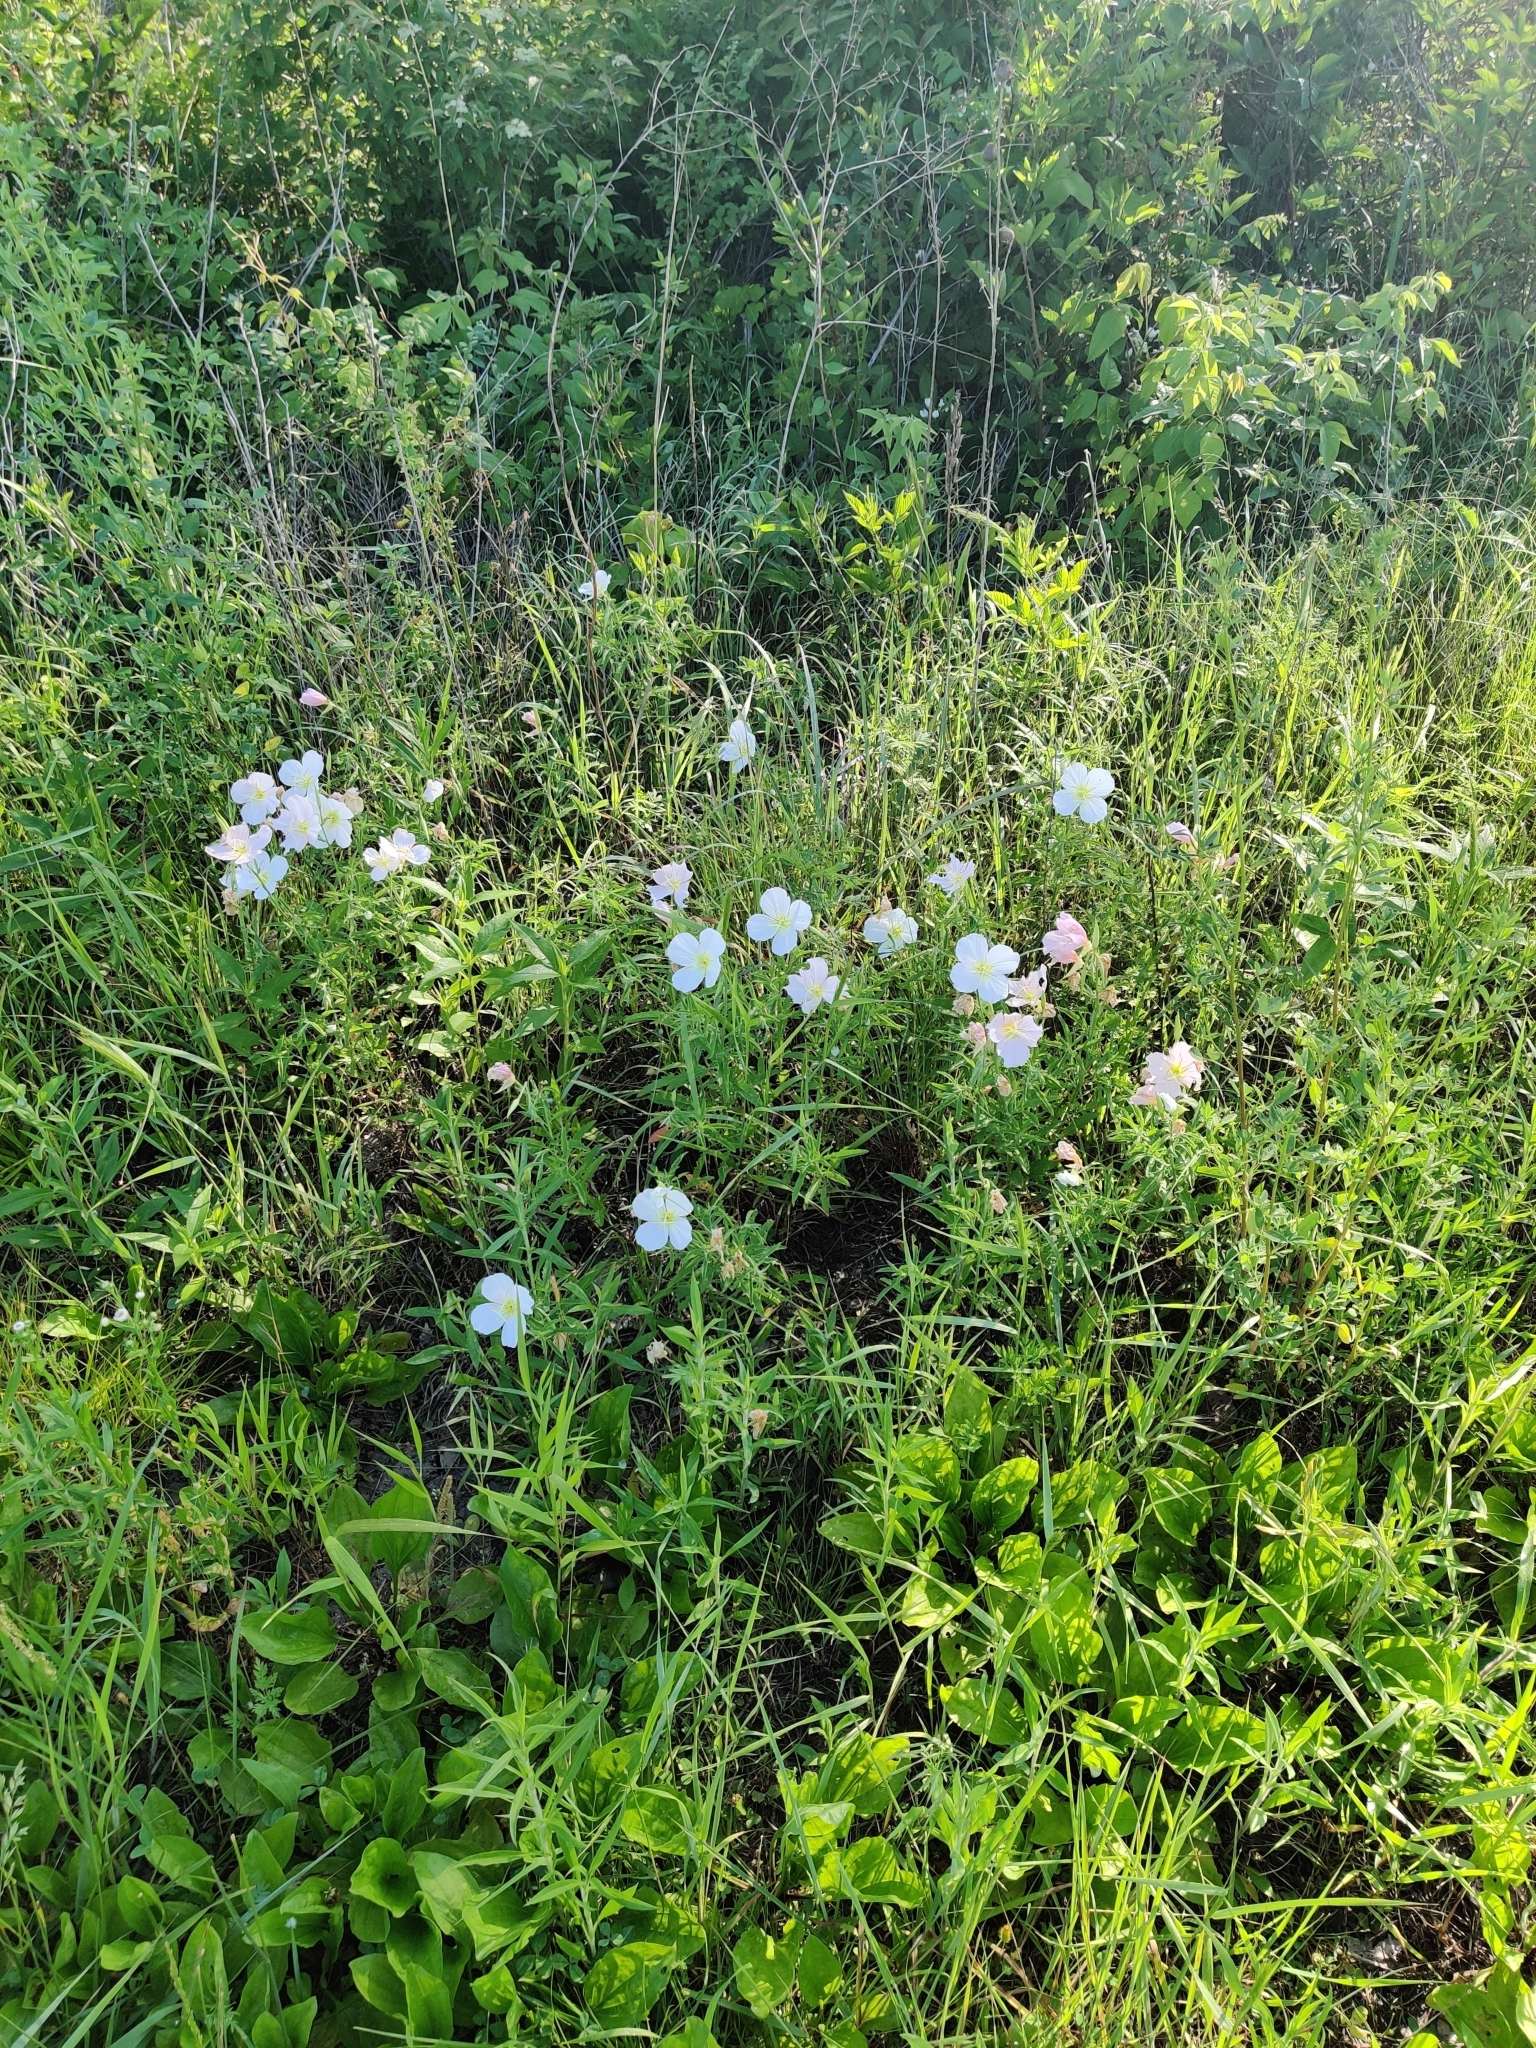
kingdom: Plantae
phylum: Tracheophyta
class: Magnoliopsida
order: Myrtales
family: Onagraceae
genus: Oenothera
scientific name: Oenothera speciosa
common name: White evening-primrose
